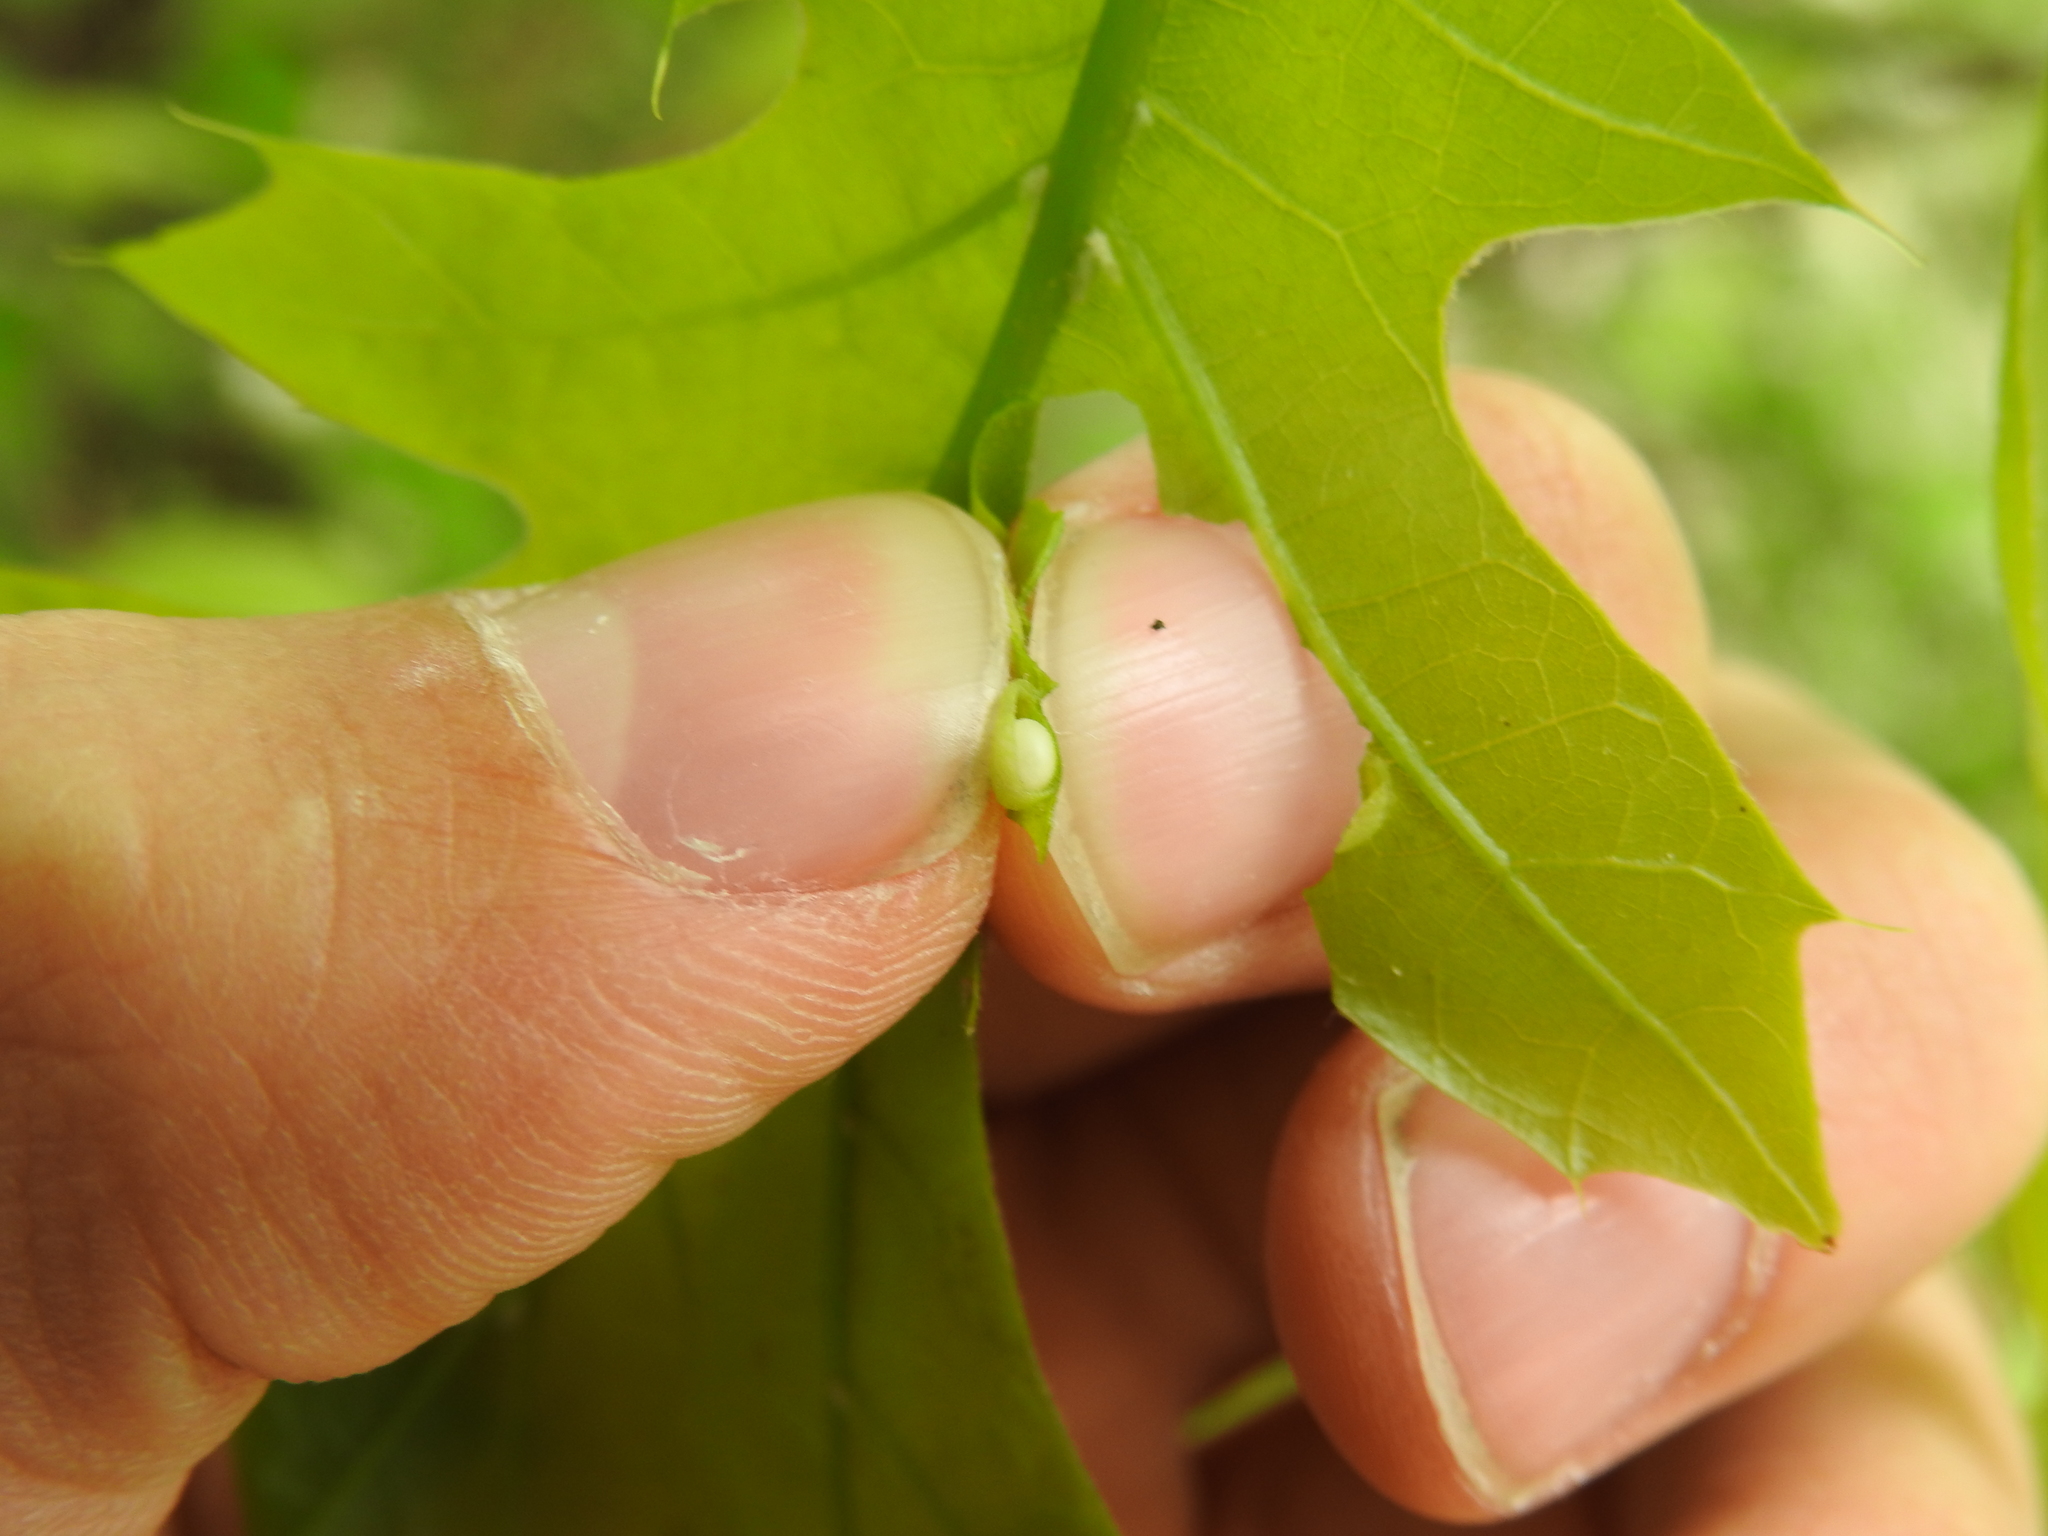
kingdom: Animalia
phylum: Arthropoda
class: Insecta
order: Hymenoptera
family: Cynipidae
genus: Dryocosmus
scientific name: Dryocosmus
